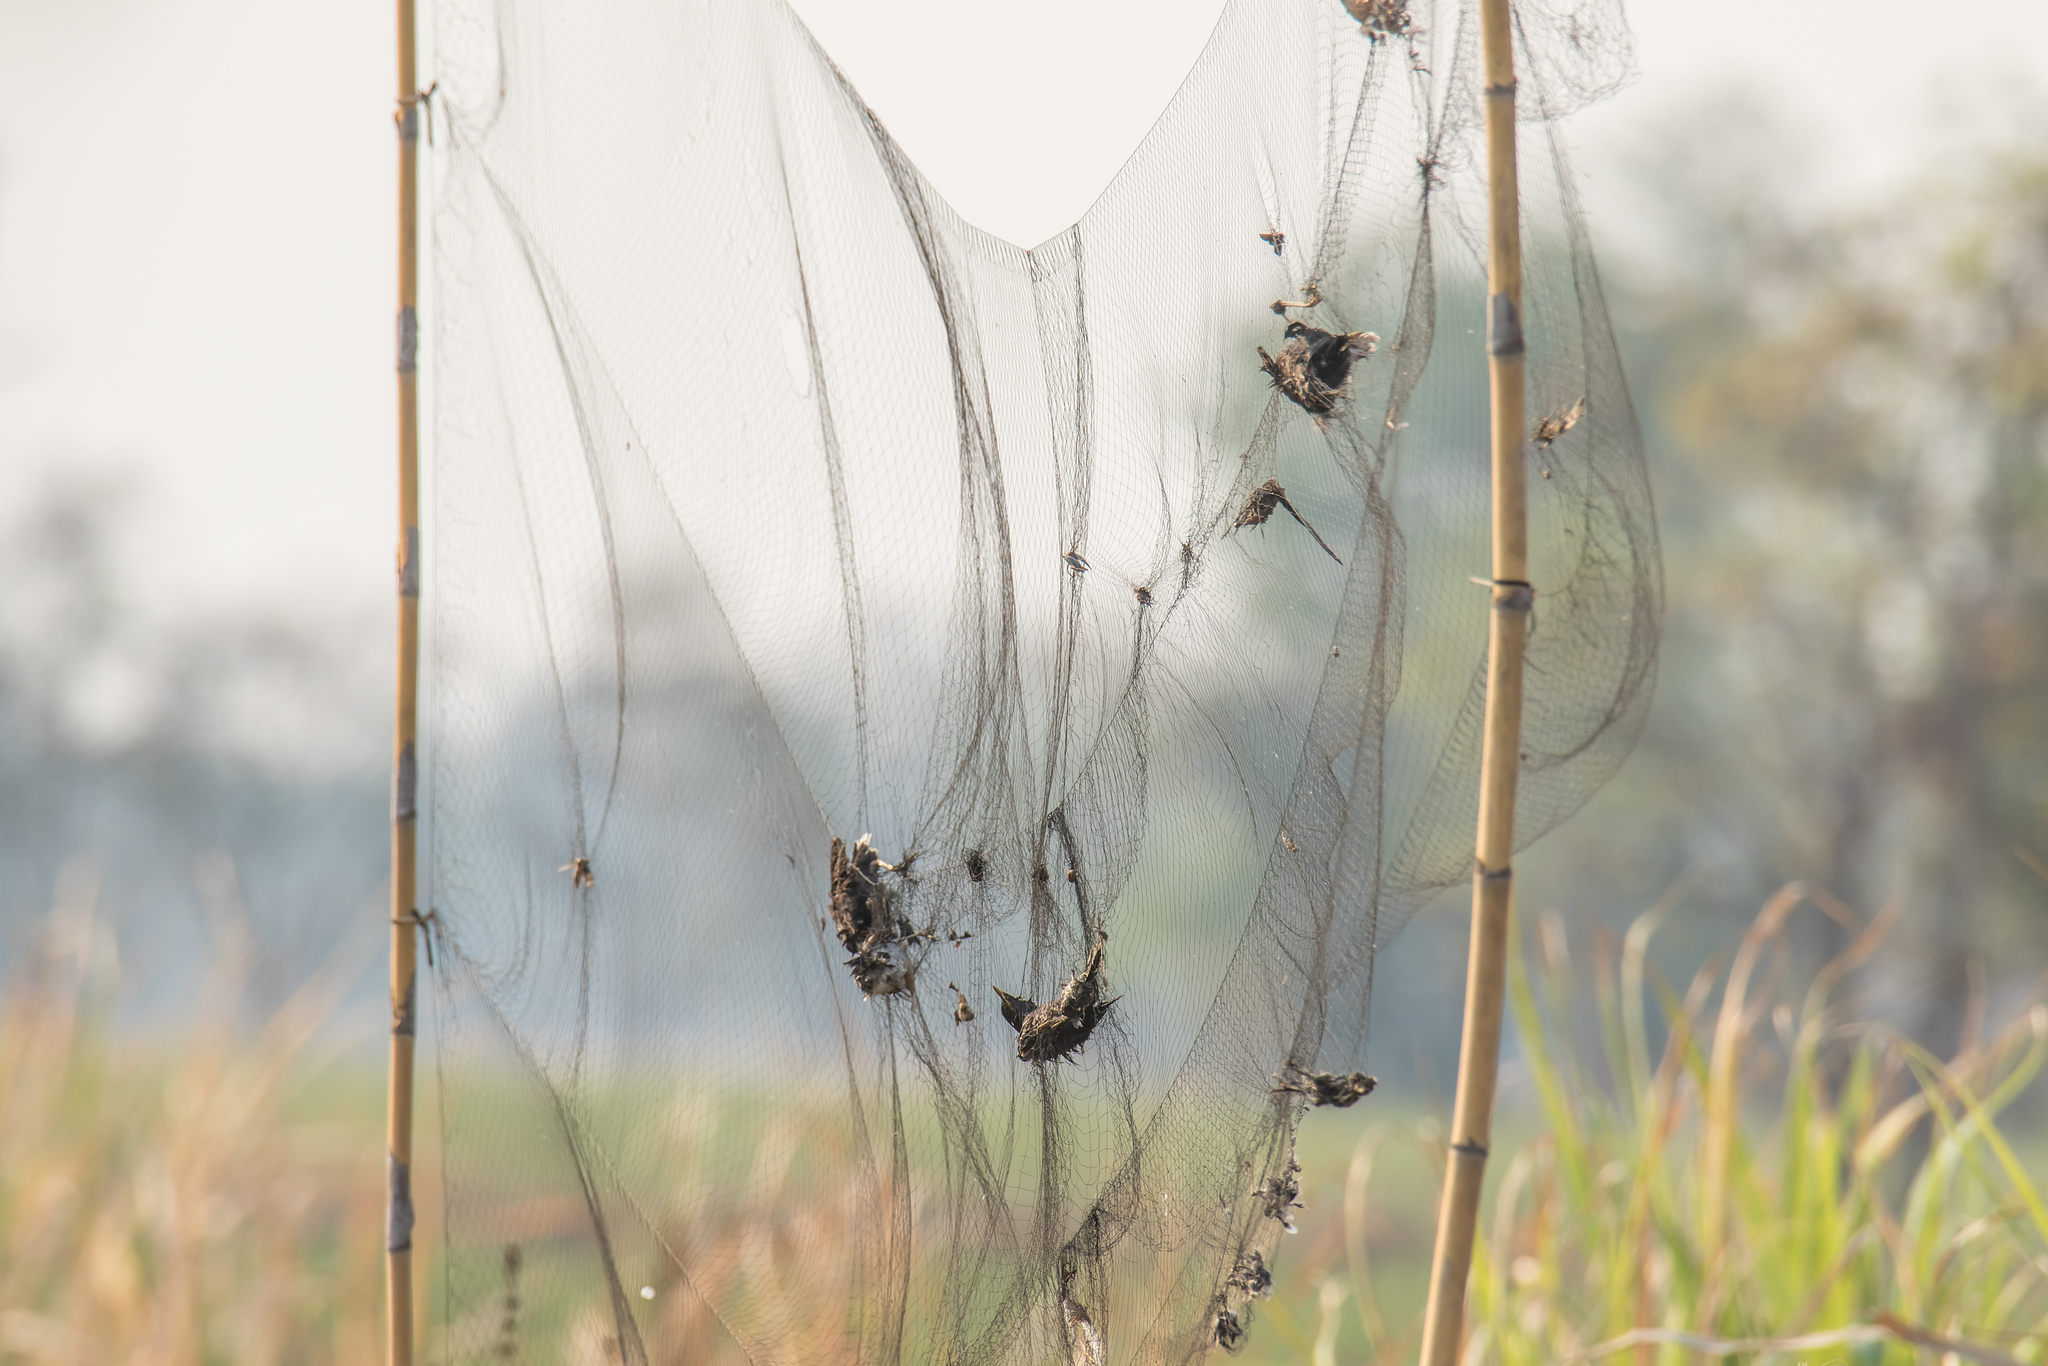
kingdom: Animalia
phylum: Chordata
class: Aves
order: Passeriformes
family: Sturnidae
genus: Acridotheres
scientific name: Acridotheres grandis
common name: Great myna
